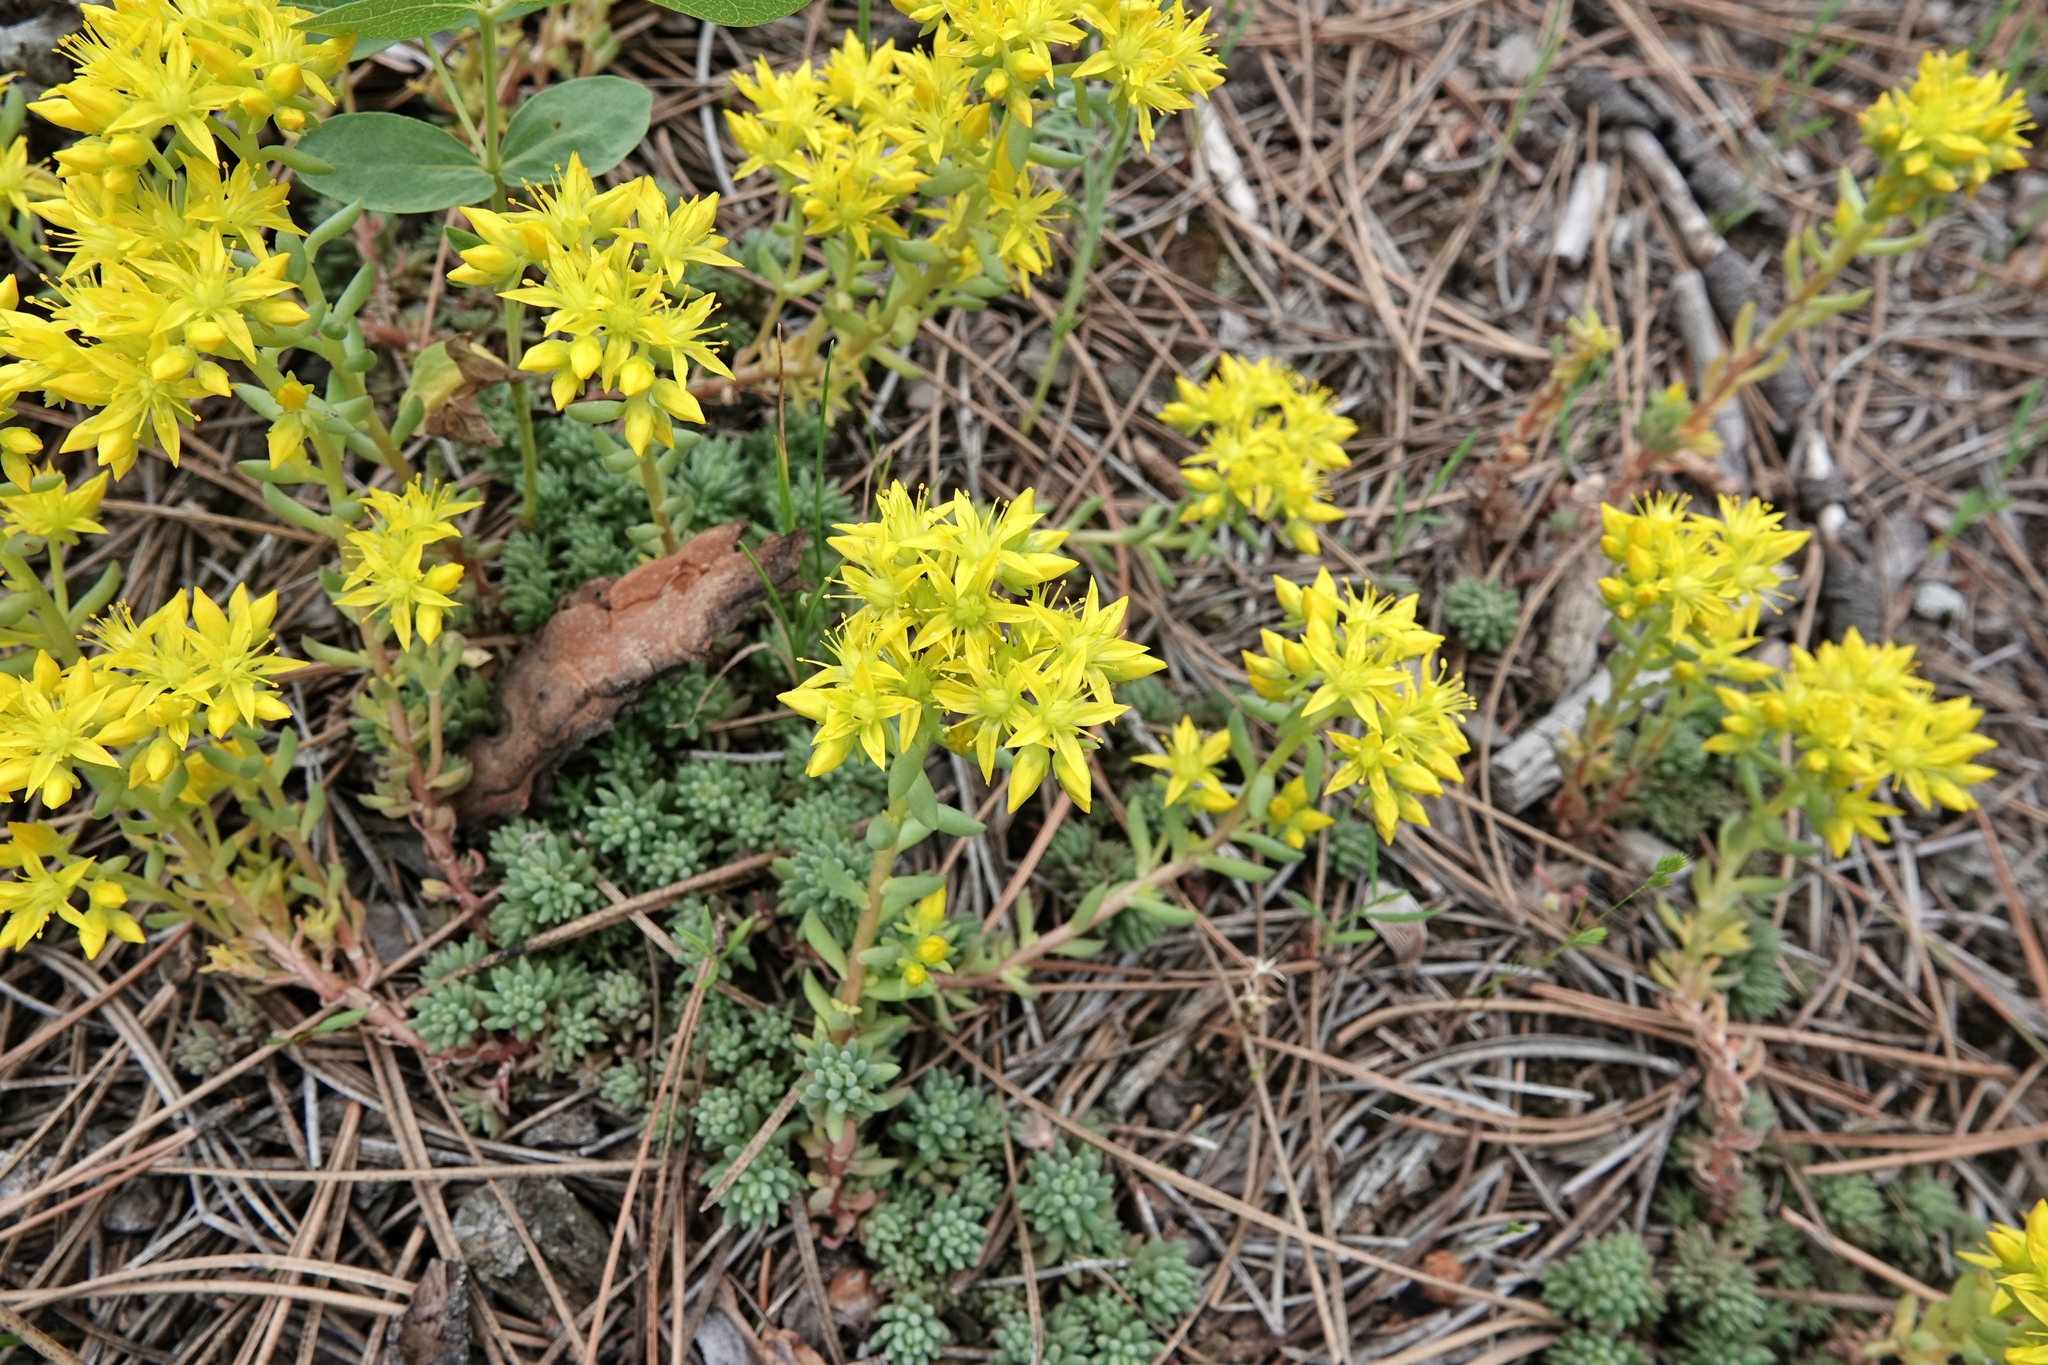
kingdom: Plantae
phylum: Tracheophyta
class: Magnoliopsida
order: Saxifragales
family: Crassulaceae
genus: Sedum
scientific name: Sedum lanceolatum
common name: Common stonecrop
